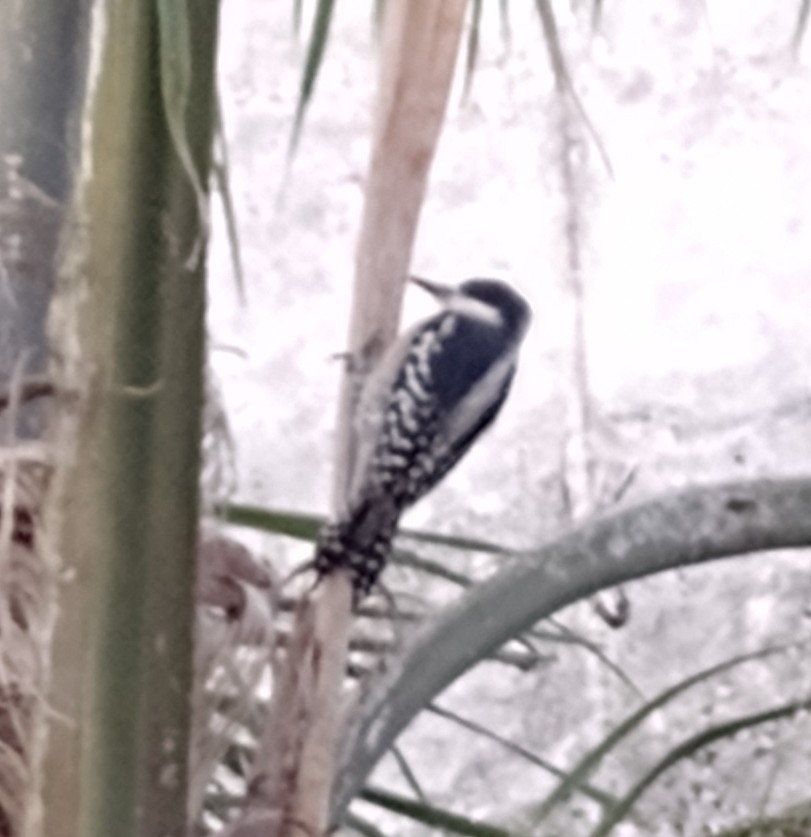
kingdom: Animalia
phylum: Chordata
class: Aves
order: Piciformes
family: Picidae
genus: Melanerpes
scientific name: Melanerpes cactorum
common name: White-fronted woodpecker
